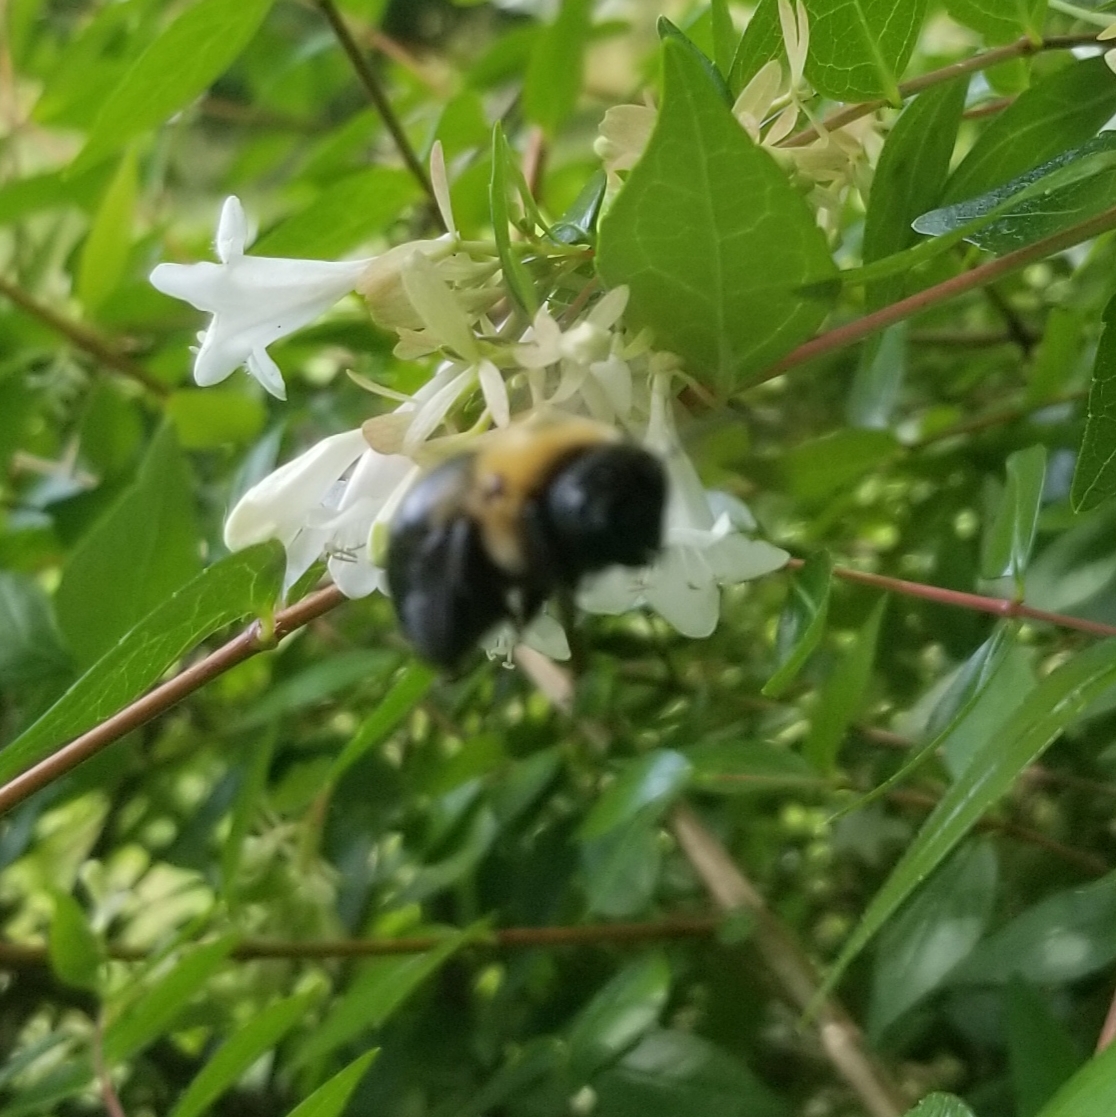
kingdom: Animalia
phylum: Arthropoda
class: Insecta
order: Hymenoptera
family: Apidae
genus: Xylocopa
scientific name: Xylocopa virginica
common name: Carpenter bee
